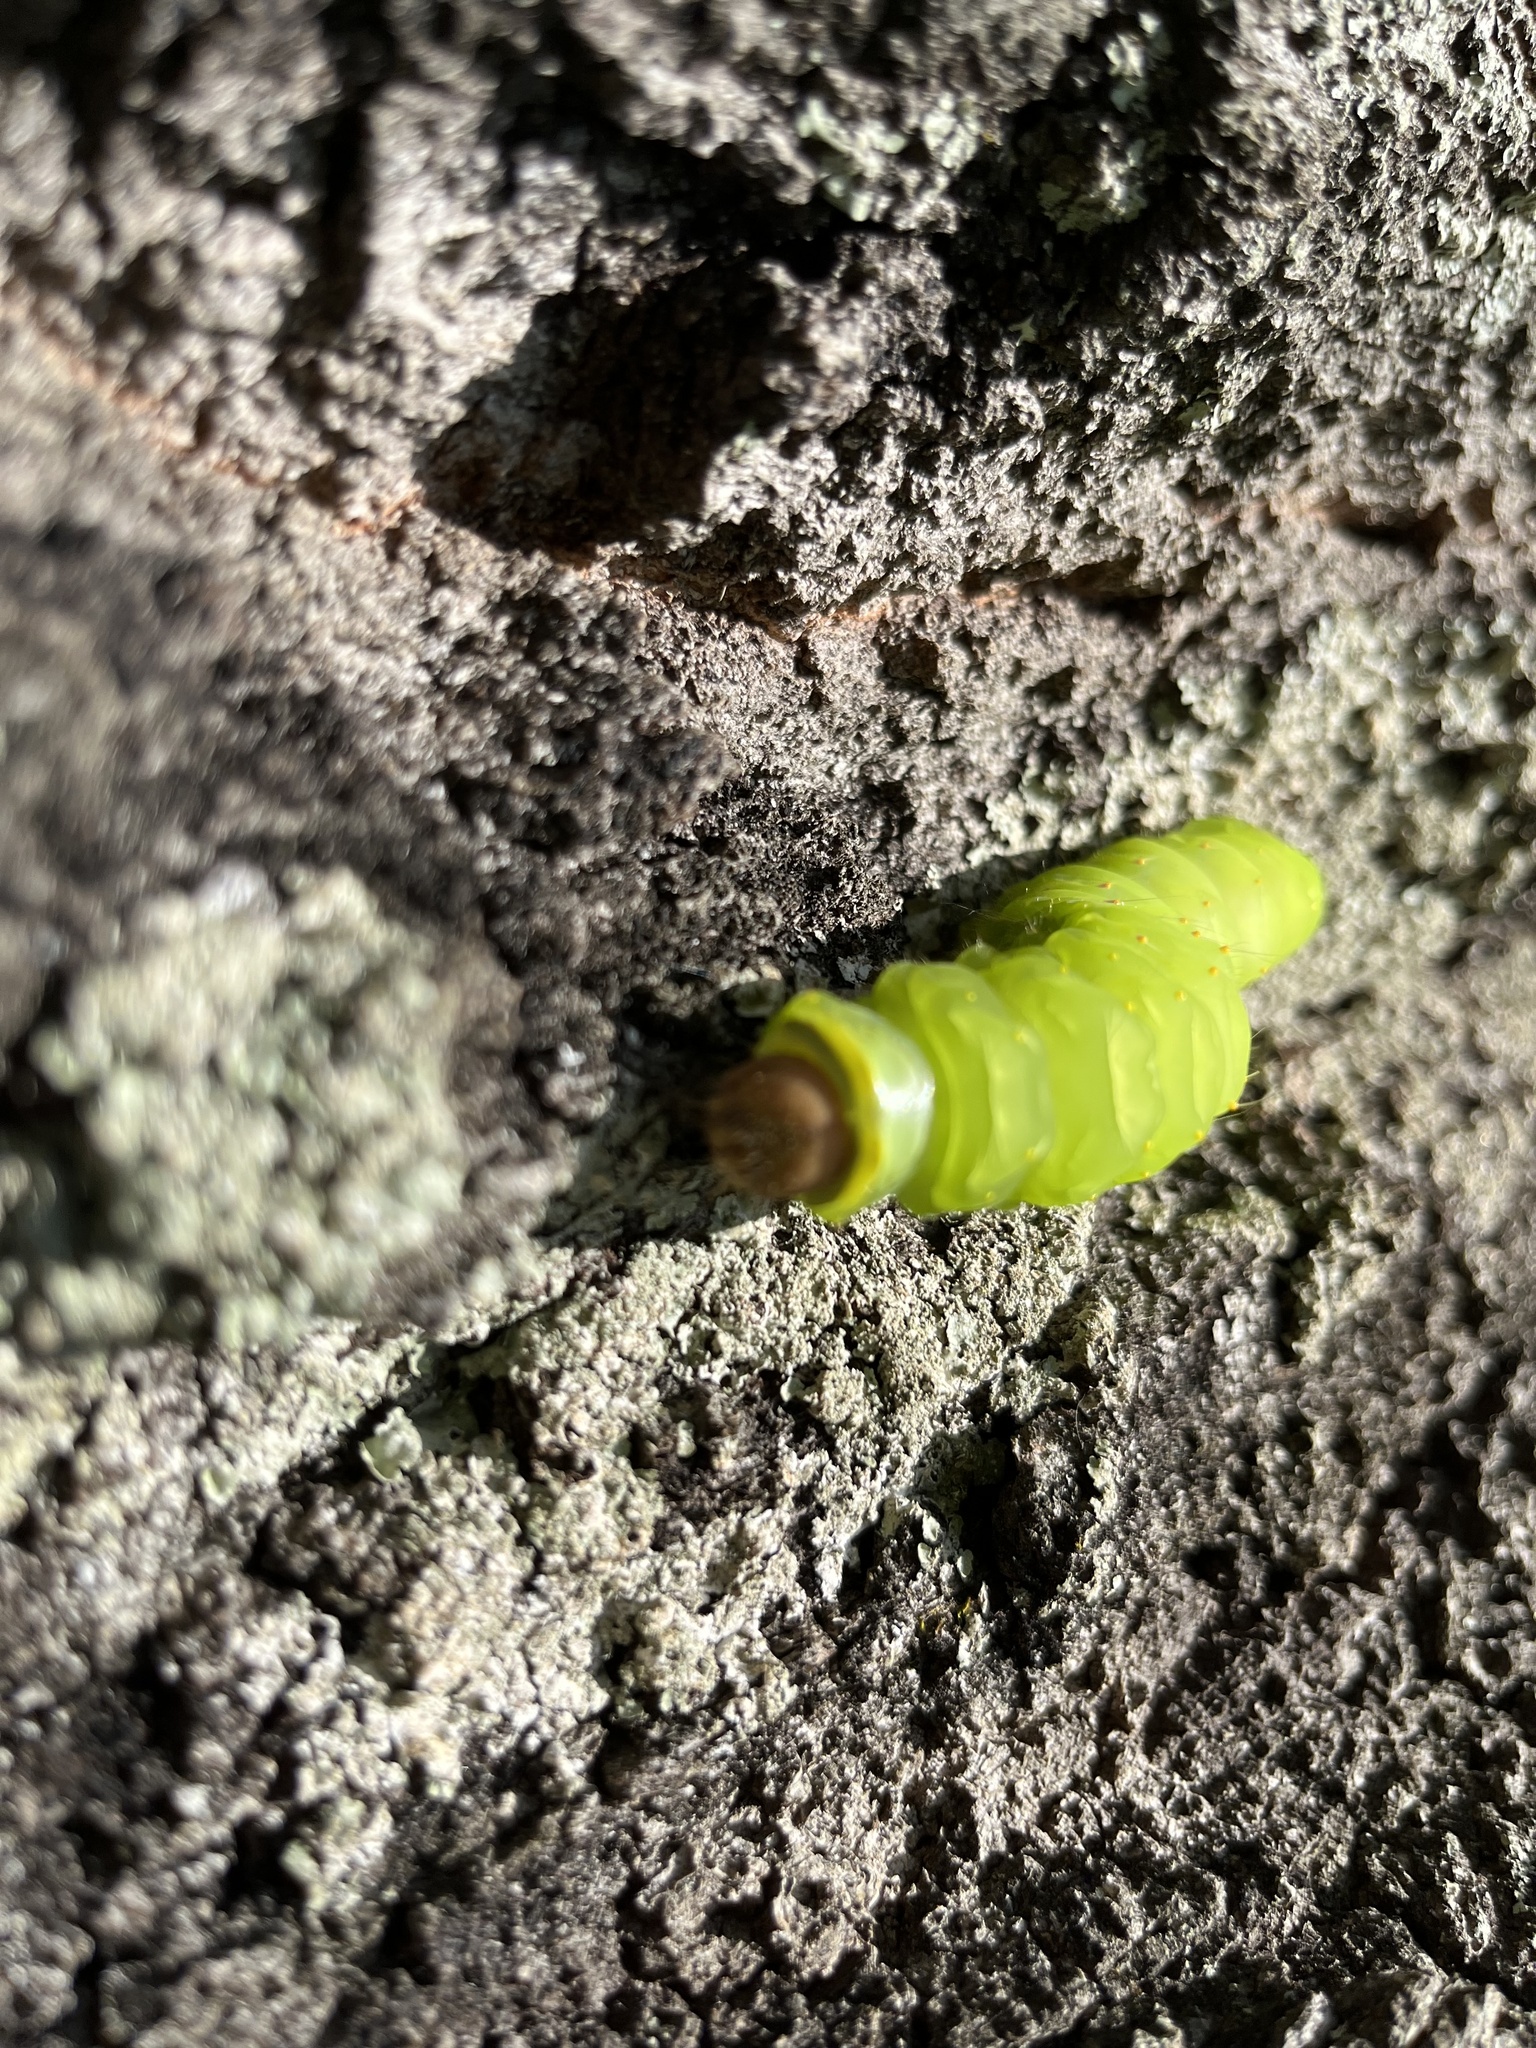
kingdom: Animalia
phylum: Arthropoda
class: Insecta
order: Lepidoptera
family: Saturniidae
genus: Antheraea
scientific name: Antheraea polyphemus
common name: Polyphemus moth
